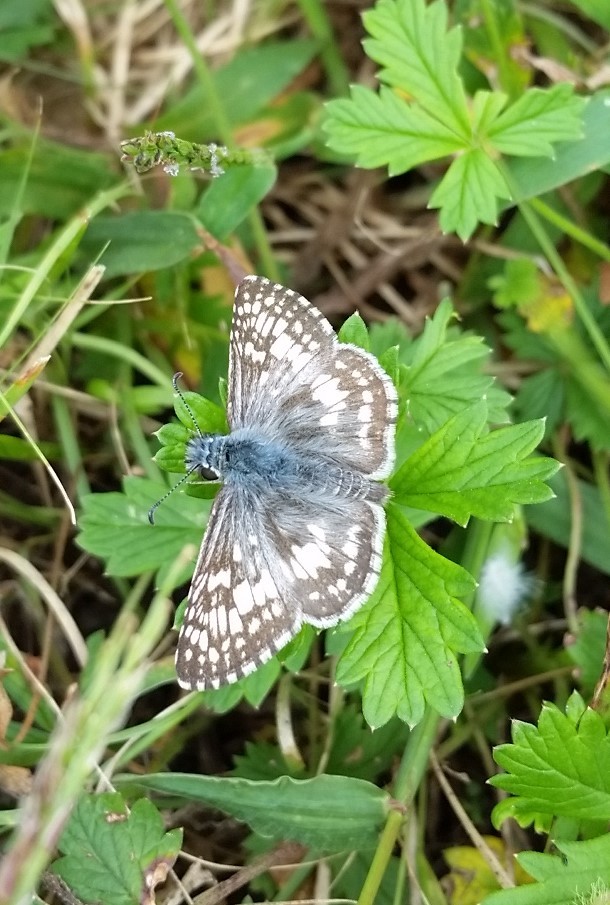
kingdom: Animalia
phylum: Arthropoda
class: Insecta
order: Lepidoptera
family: Hesperiidae
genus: Burnsius
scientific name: Burnsius communis
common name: Common checkered-skipper
